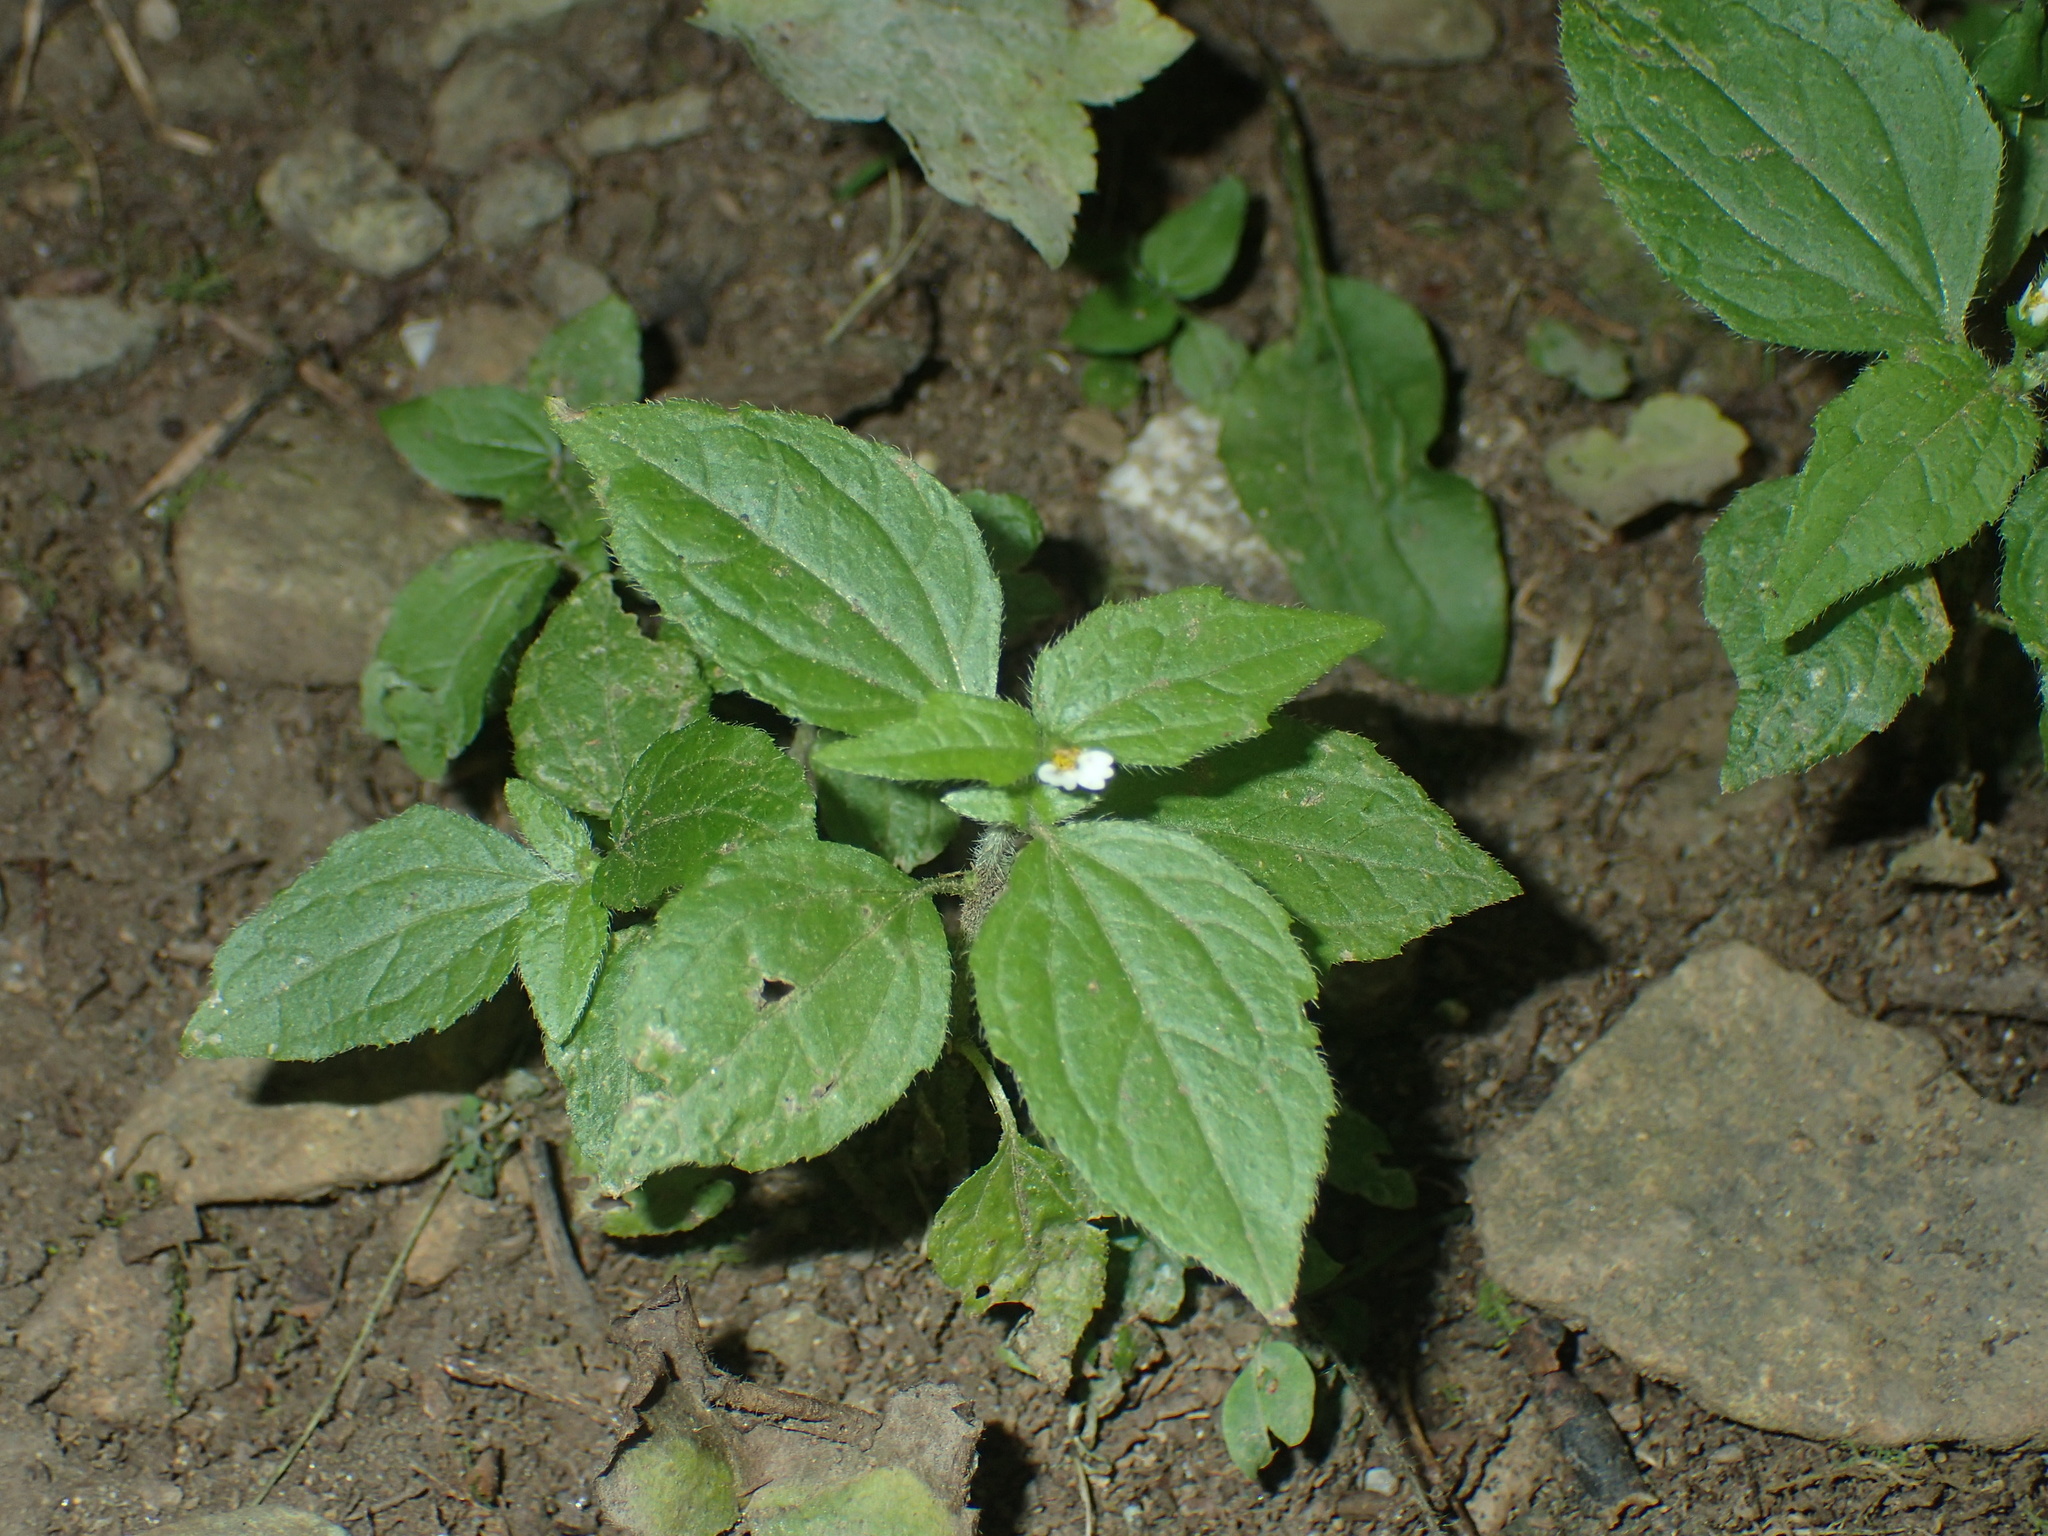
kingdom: Plantae
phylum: Tracheophyta
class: Magnoliopsida
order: Asterales
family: Asteraceae
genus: Galinsoga
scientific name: Galinsoga quadriradiata
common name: Shaggy soldier
